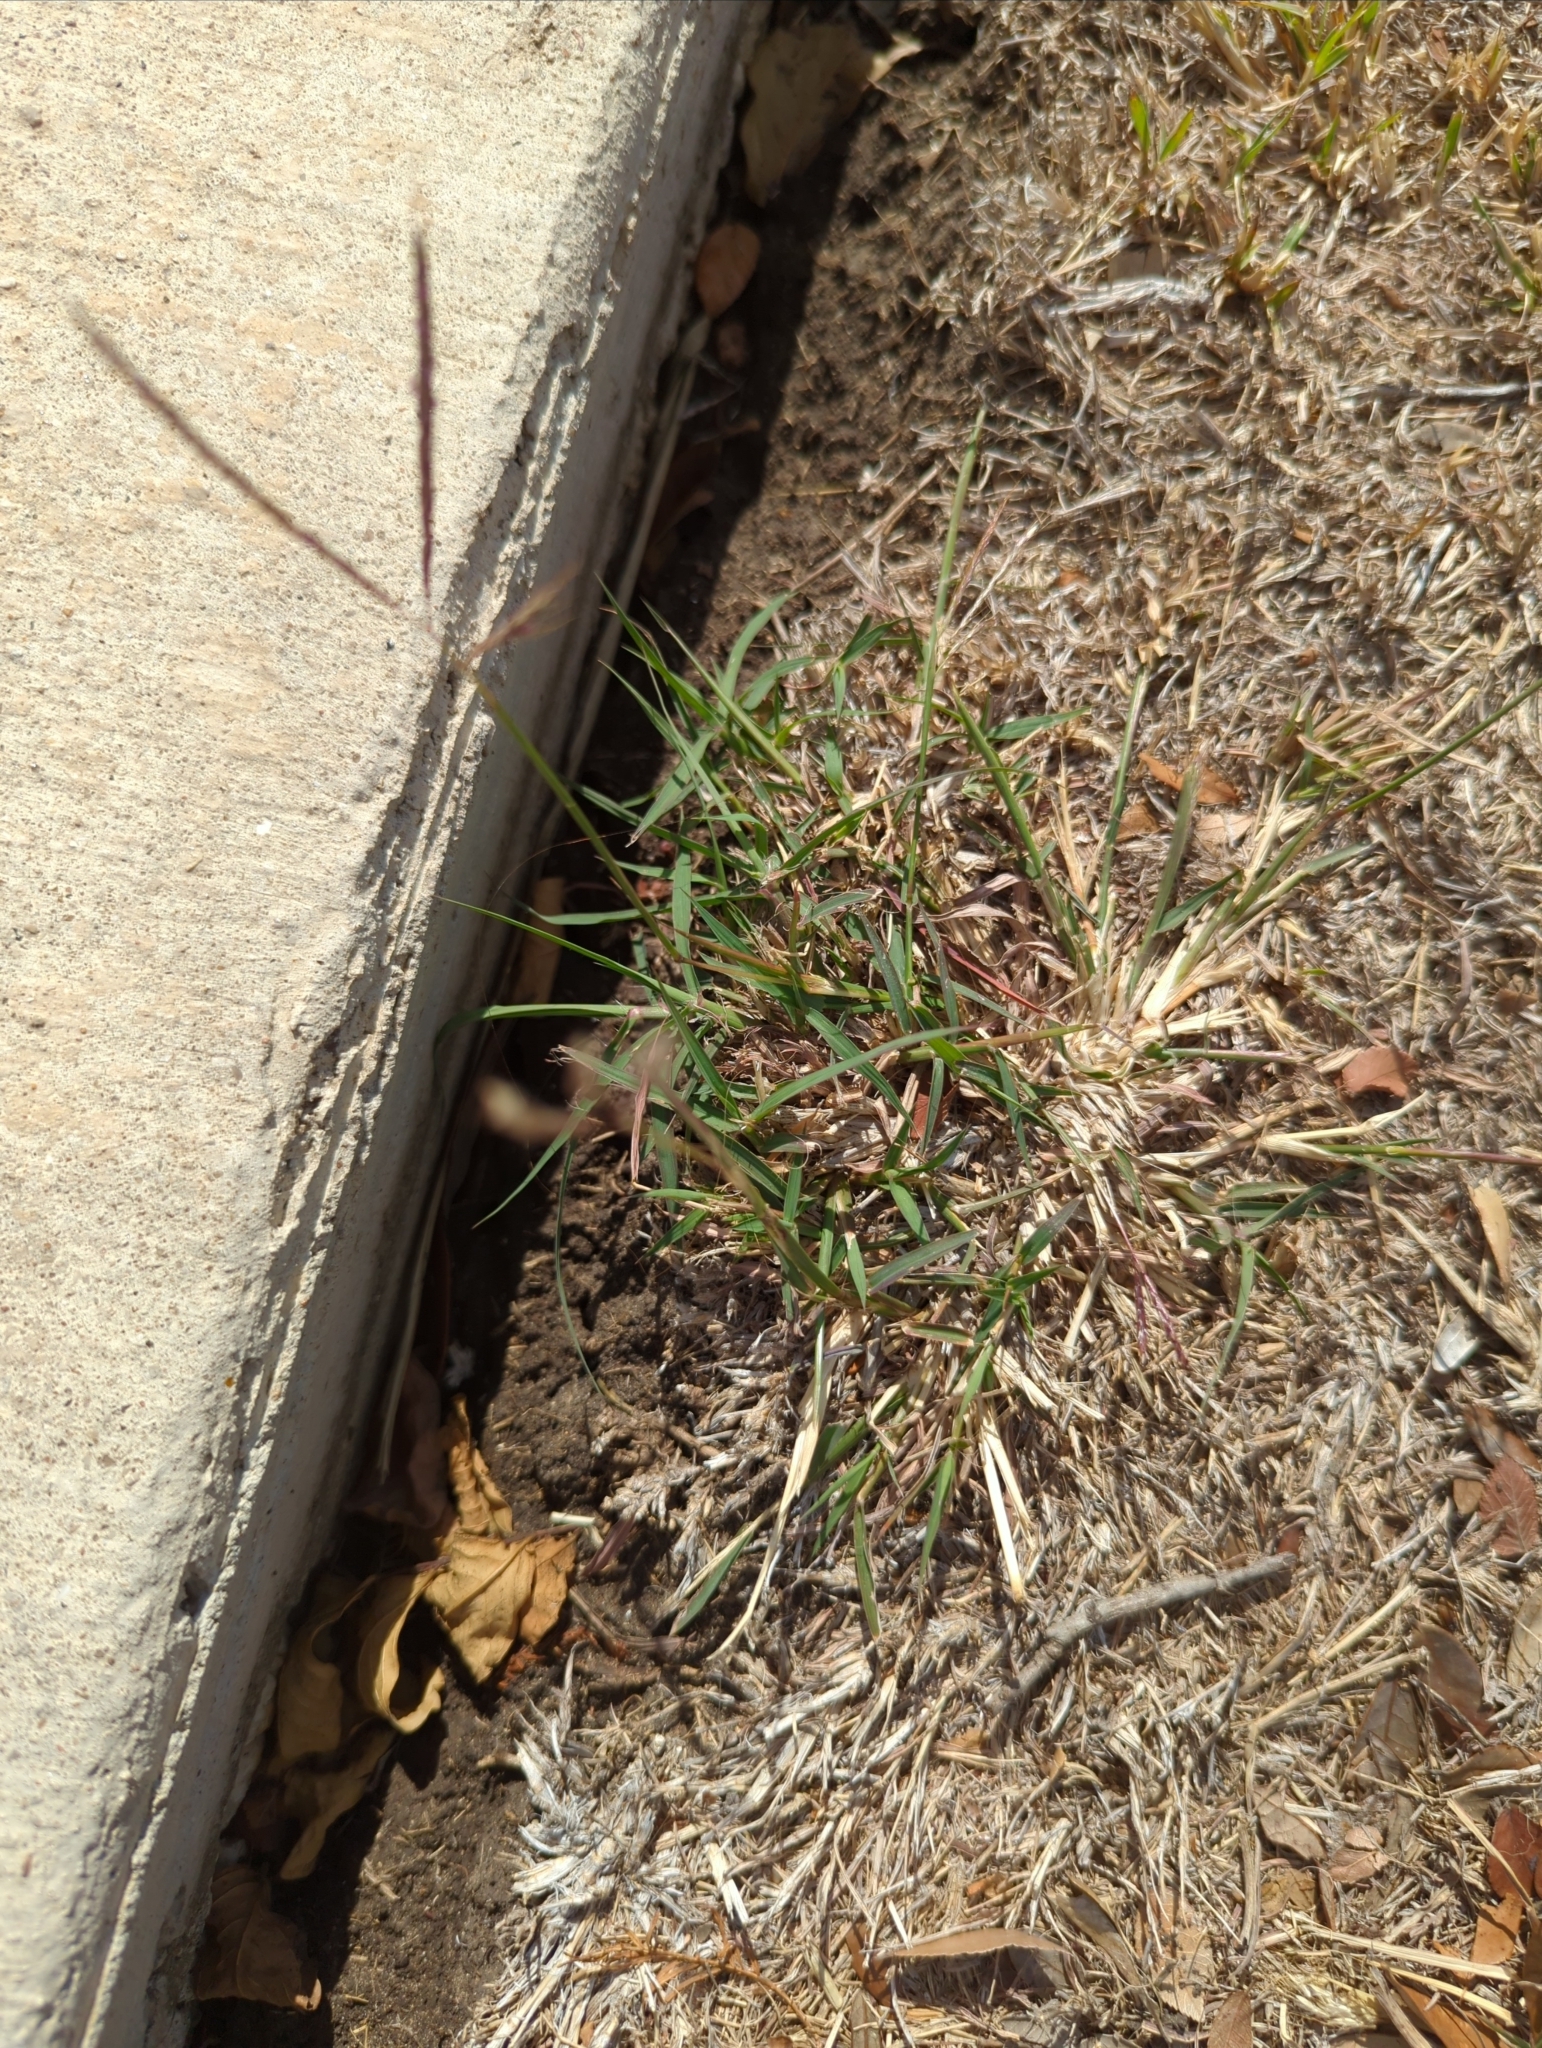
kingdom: Plantae
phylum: Tracheophyta
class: Liliopsida
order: Poales
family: Poaceae
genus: Bothriochloa
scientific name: Bothriochloa ischaemum
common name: Yellow bluestem
